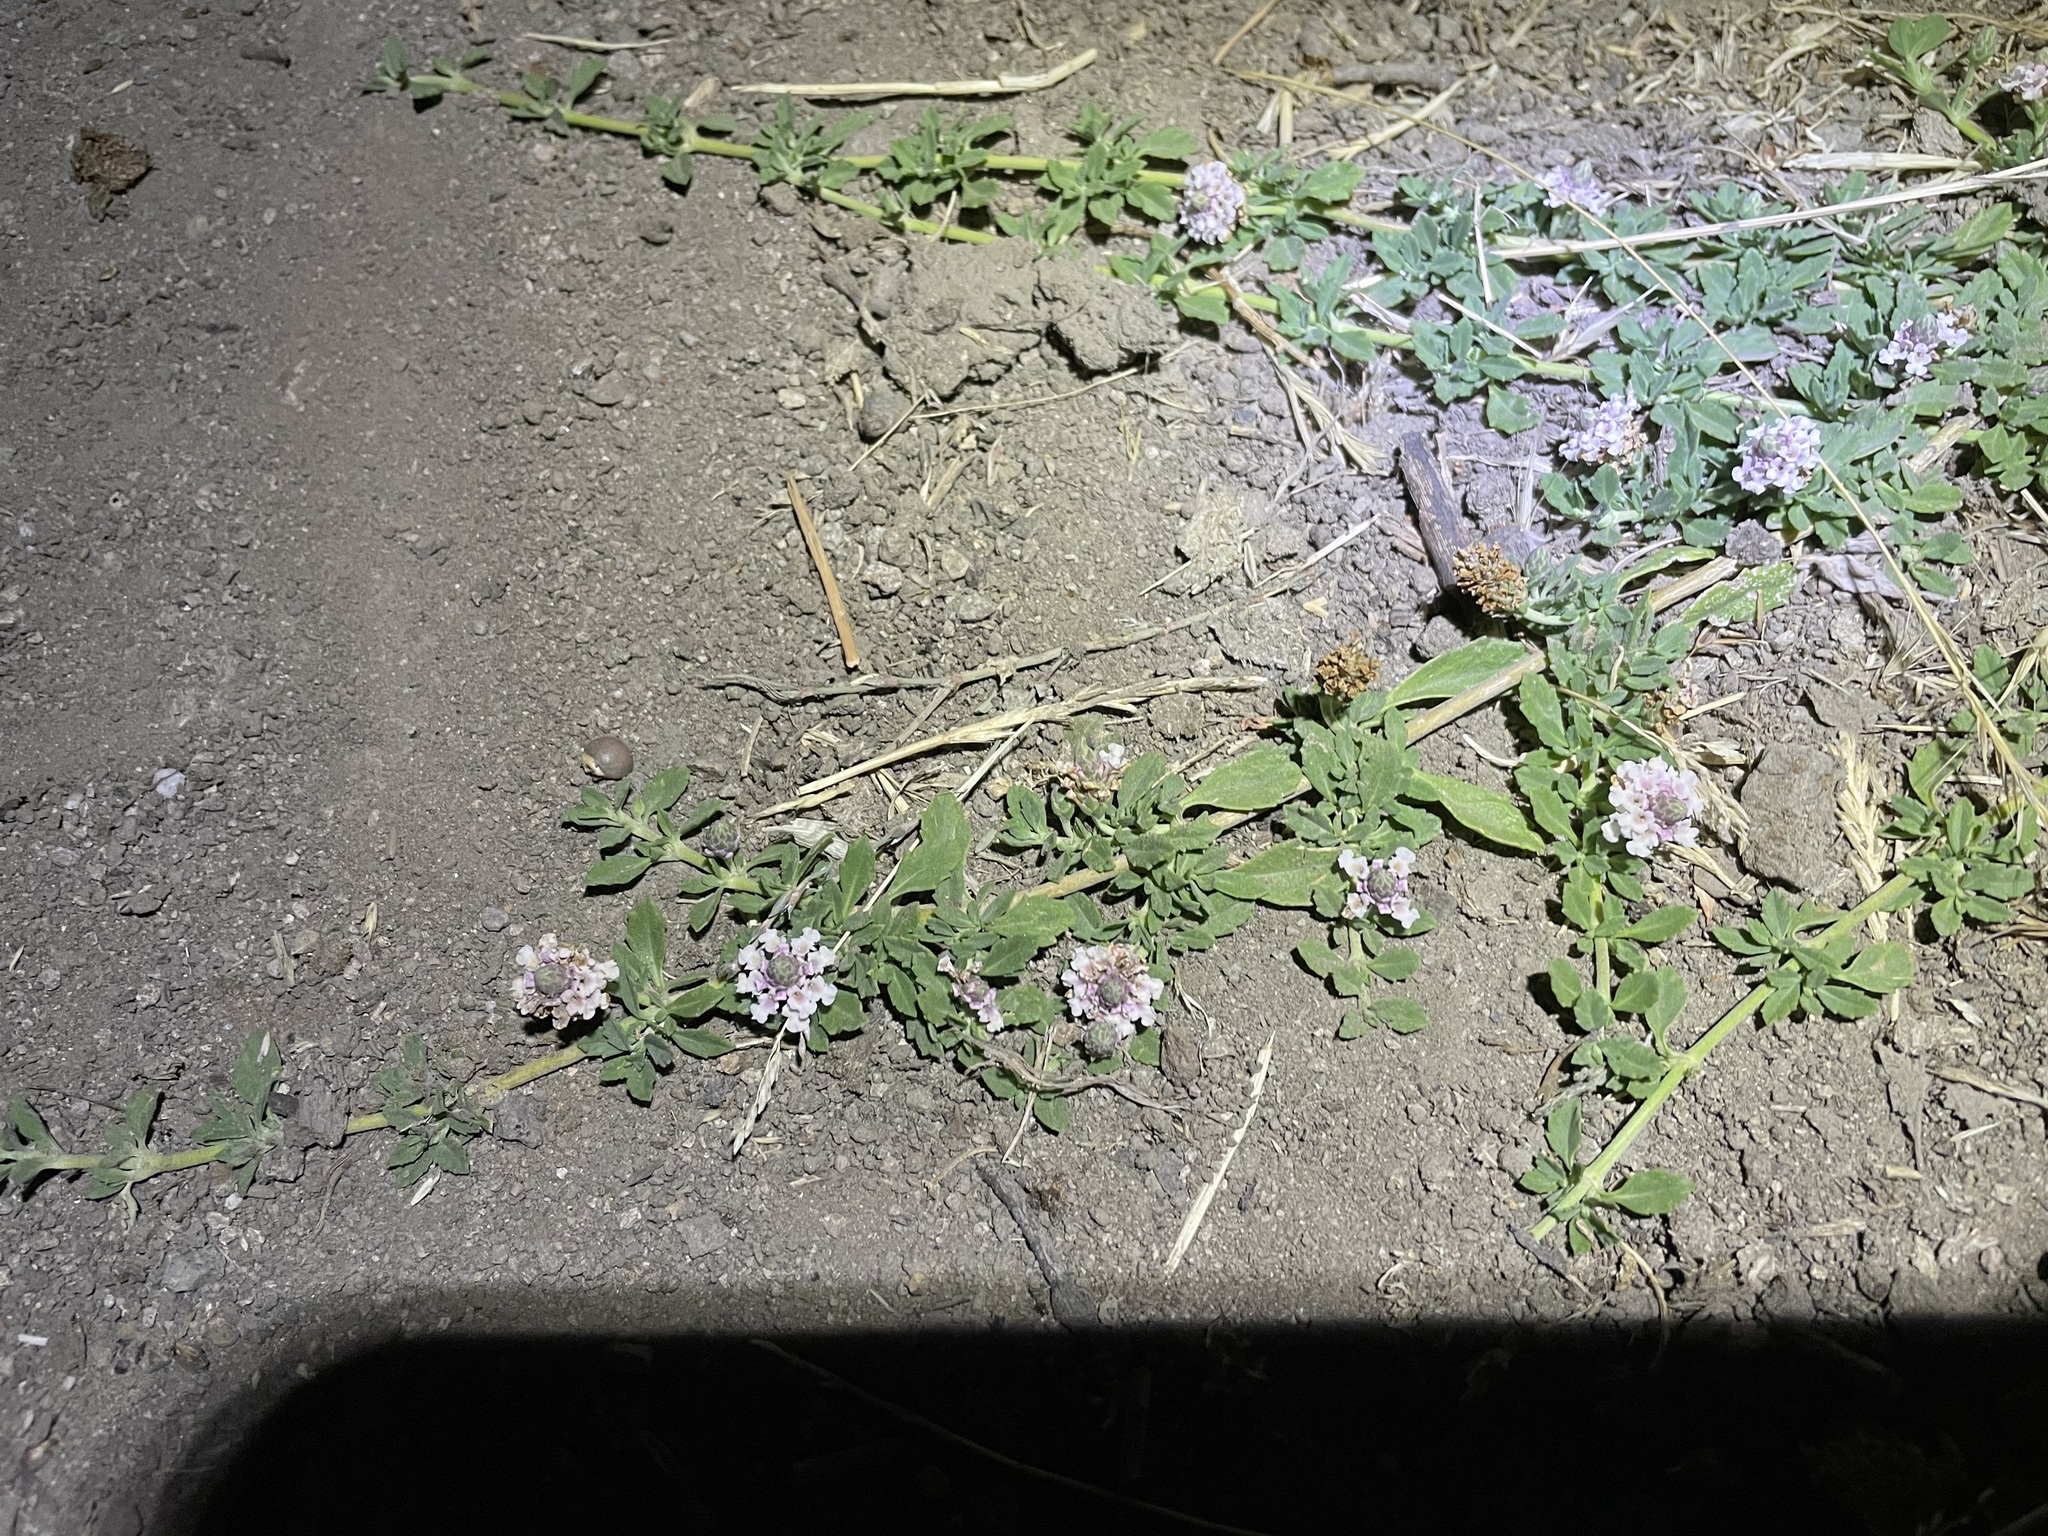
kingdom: Plantae
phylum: Tracheophyta
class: Magnoliopsida
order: Lamiales
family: Verbenaceae
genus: Phyla
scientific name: Phyla nodiflora
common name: Frogfruit
